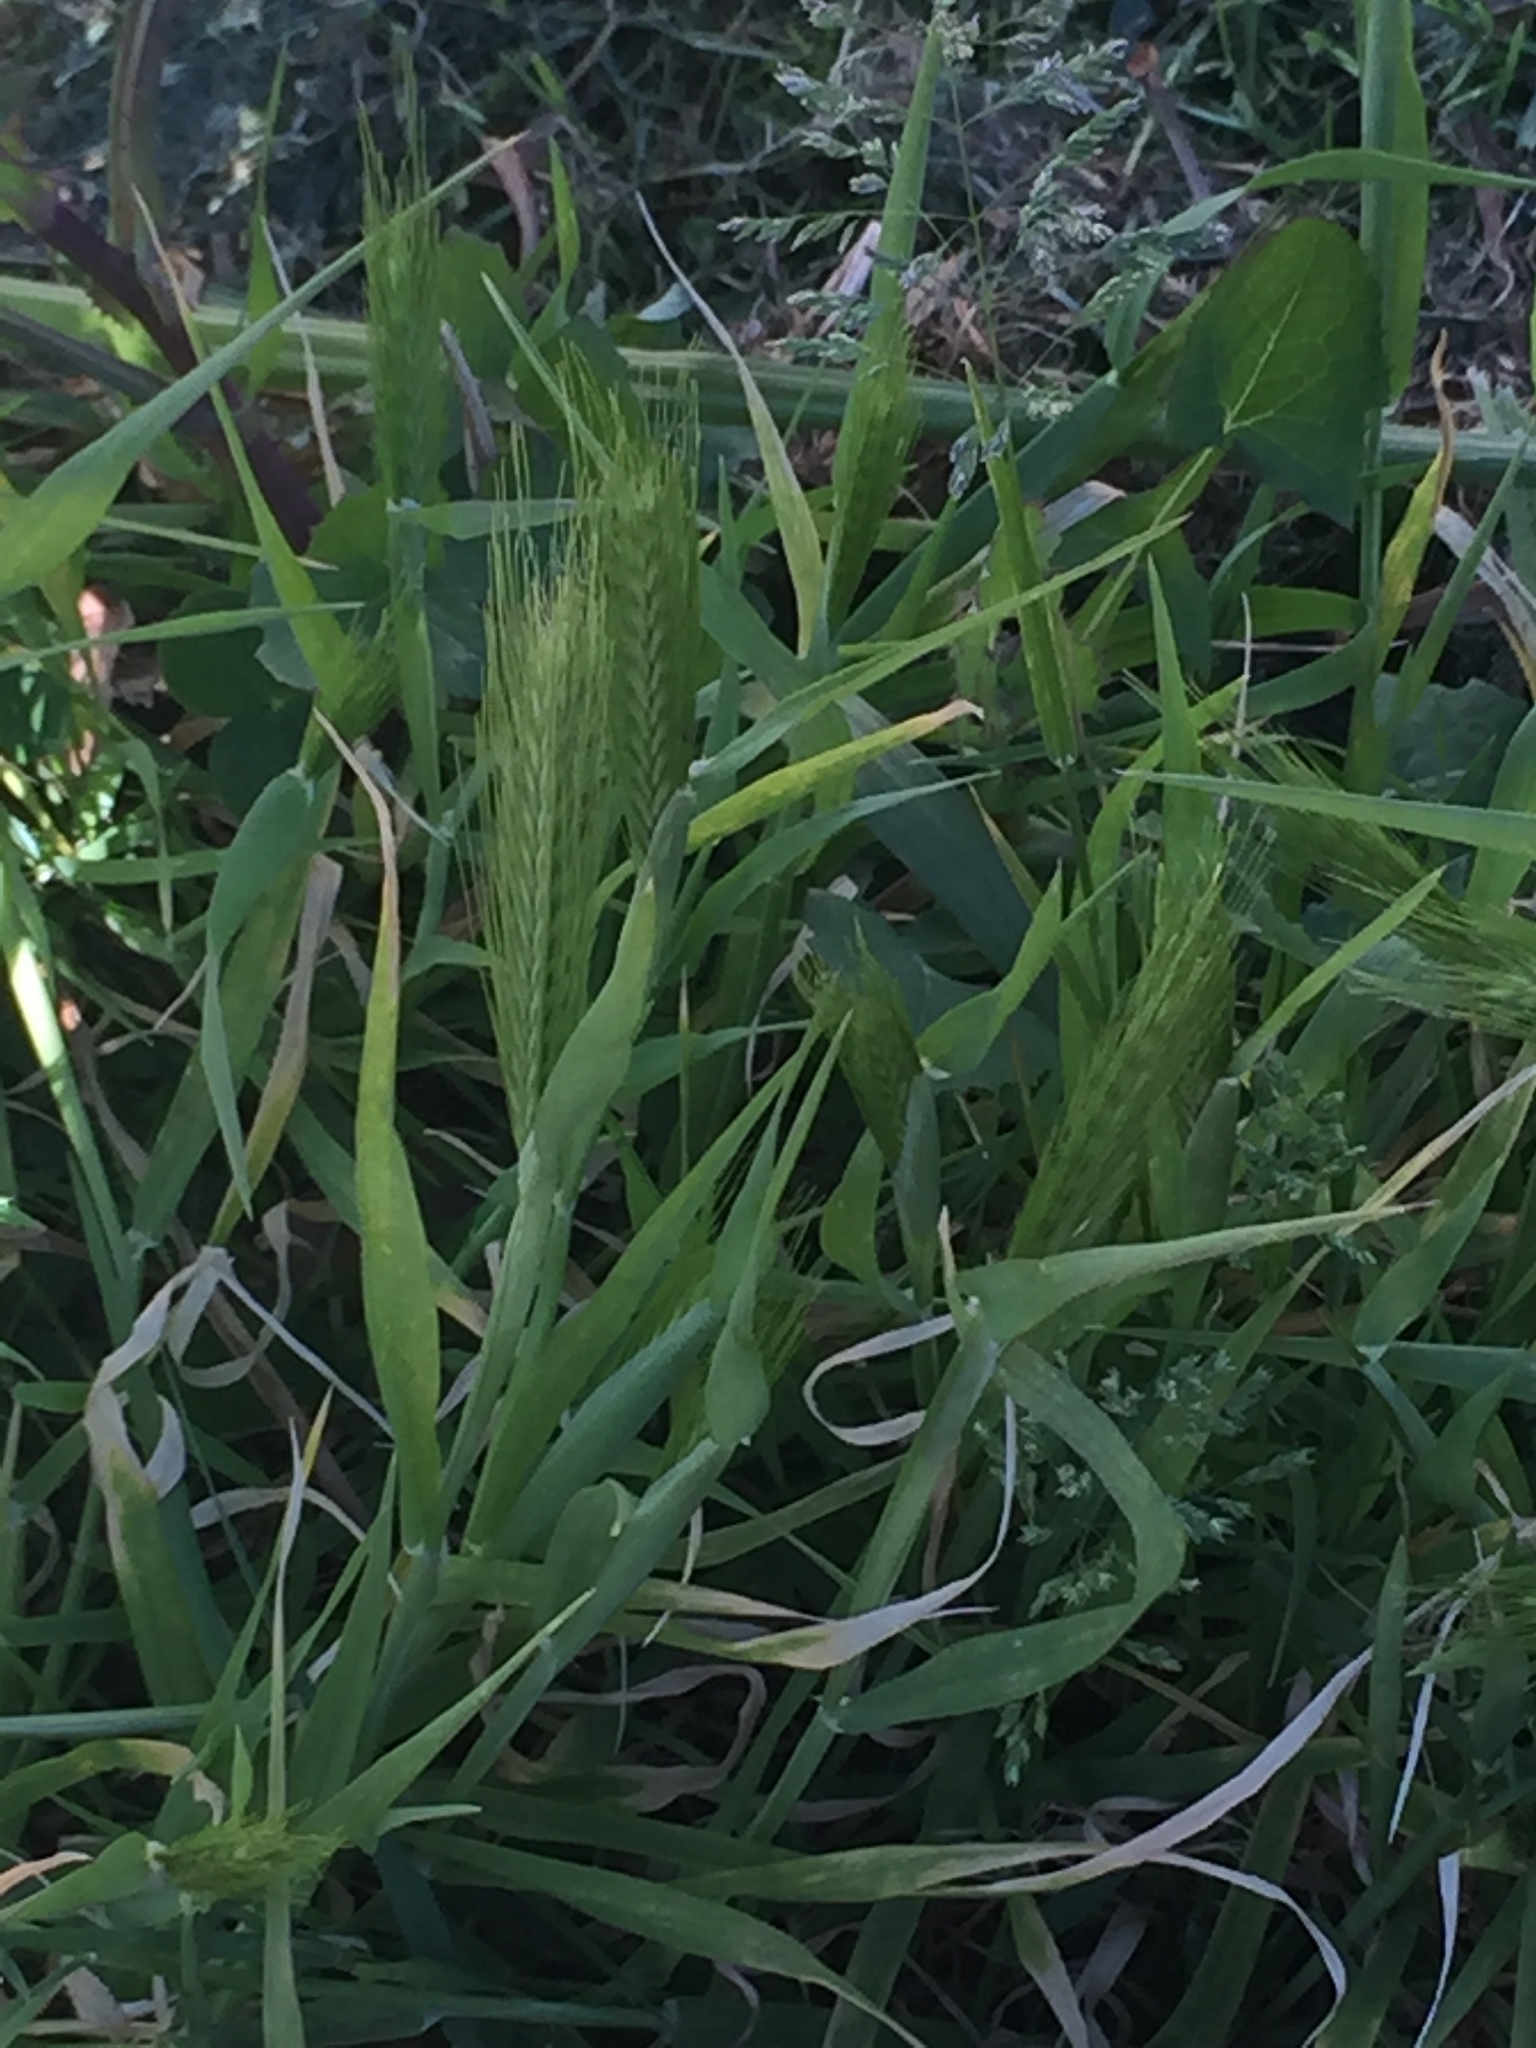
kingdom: Plantae
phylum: Tracheophyta
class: Liliopsida
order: Poales
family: Poaceae
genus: Hordeum
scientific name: Hordeum murinum
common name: Wall barley
